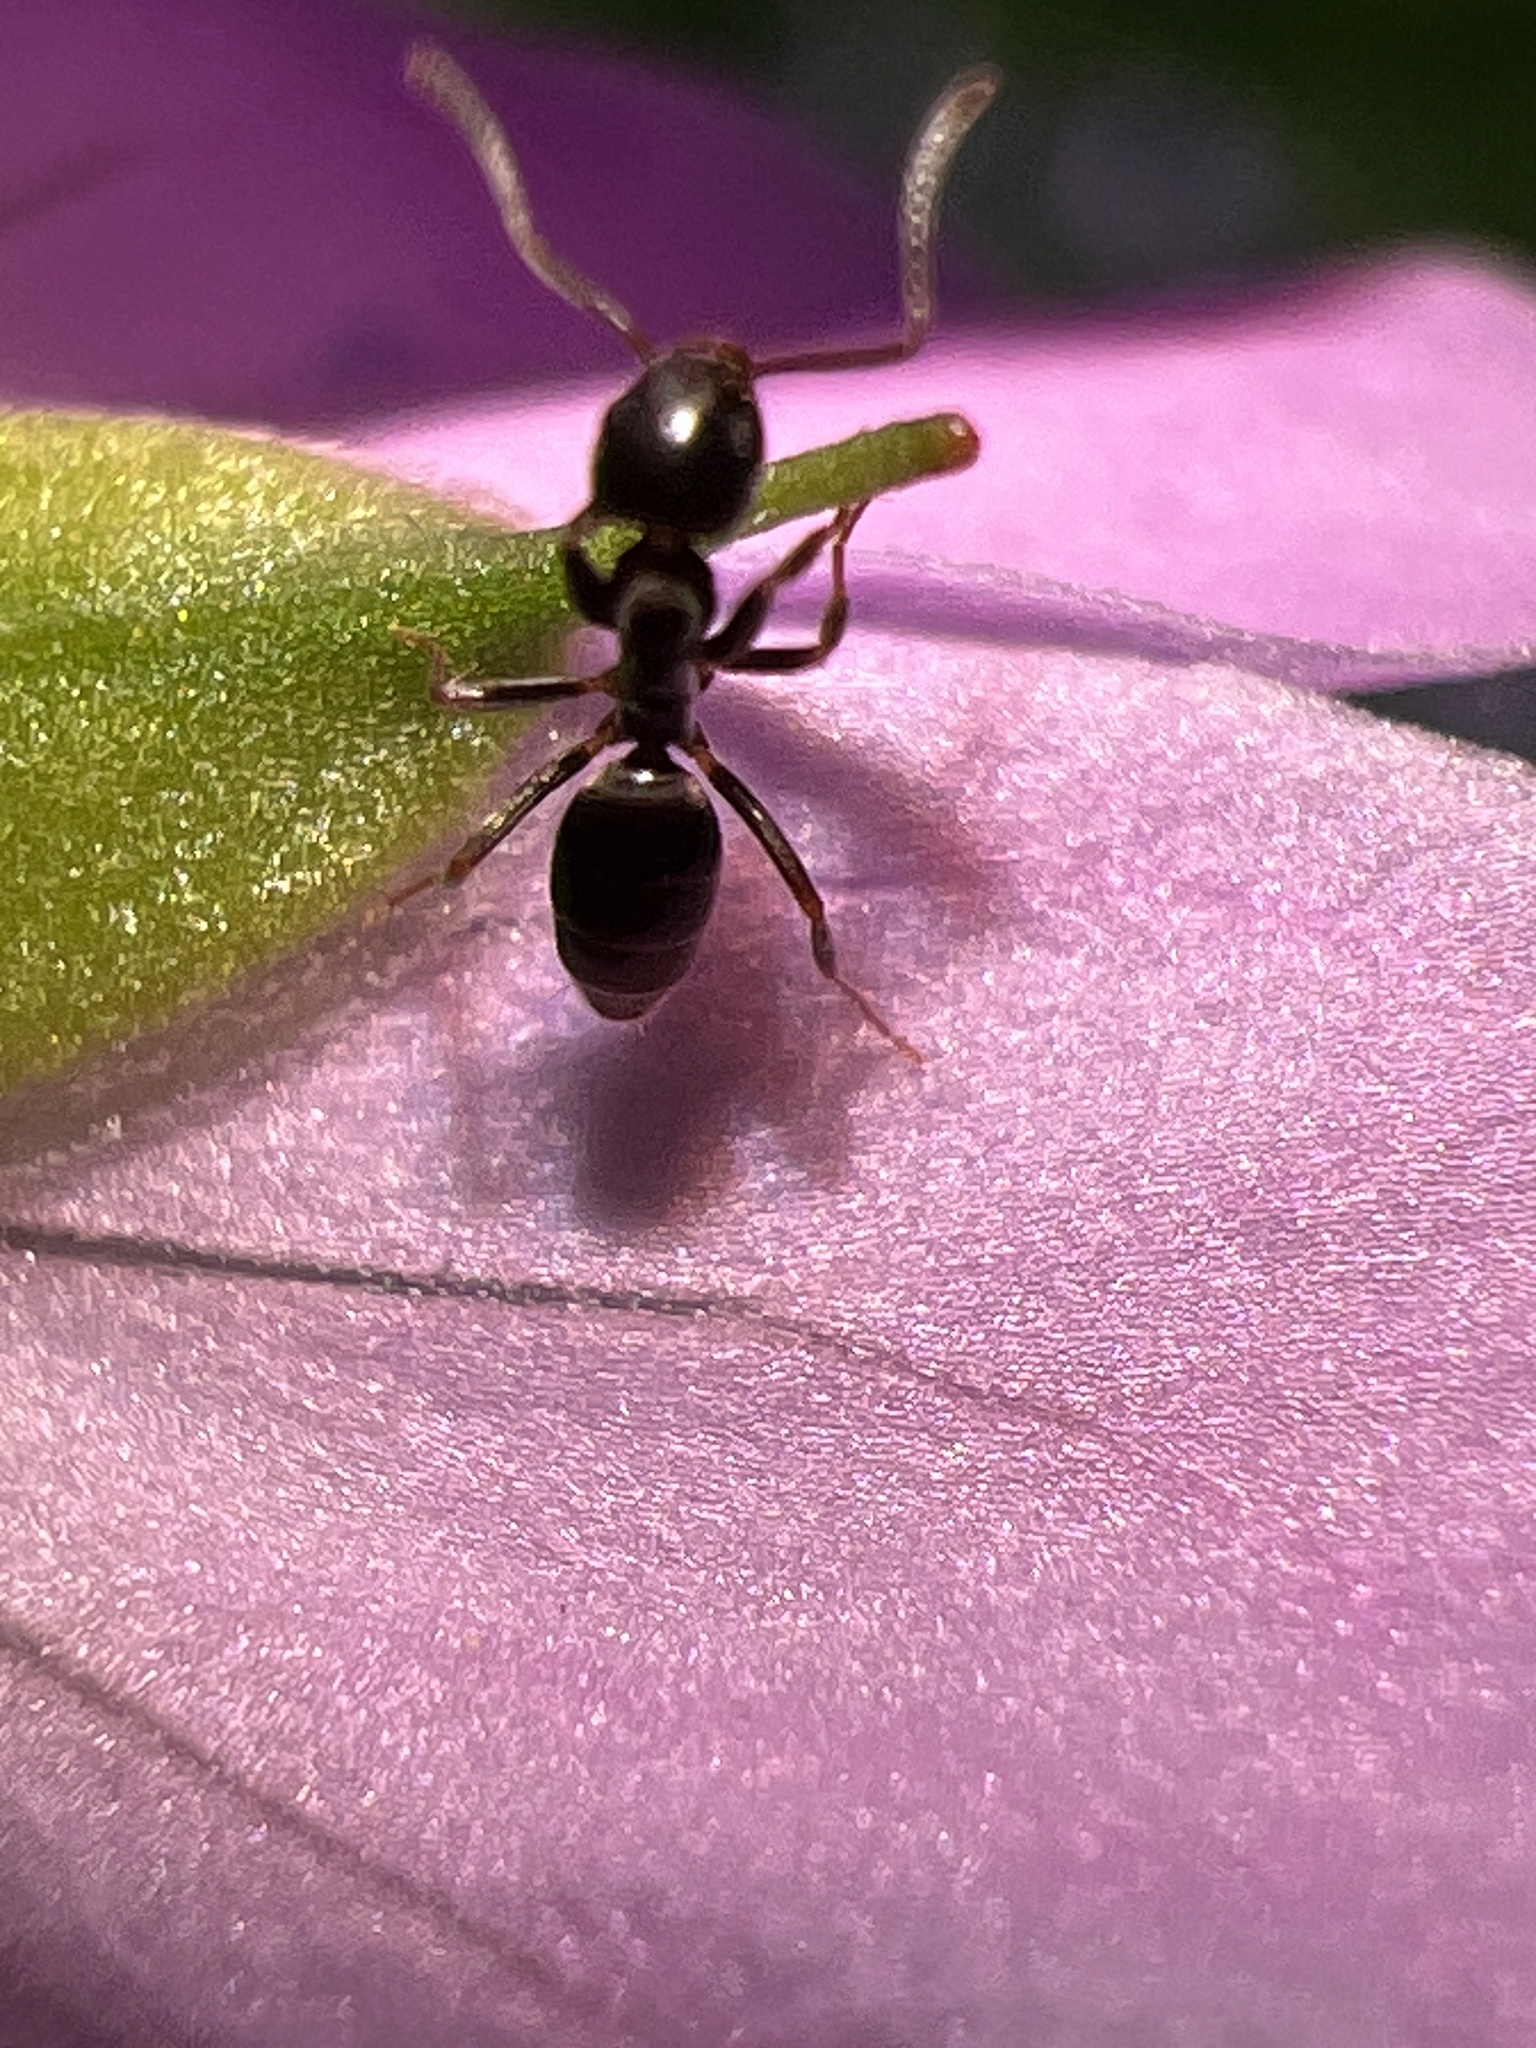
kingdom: Animalia
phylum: Arthropoda
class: Insecta
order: Hymenoptera
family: Formicidae
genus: Tapinoma
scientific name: Tapinoma sessile
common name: Odorous house ant
